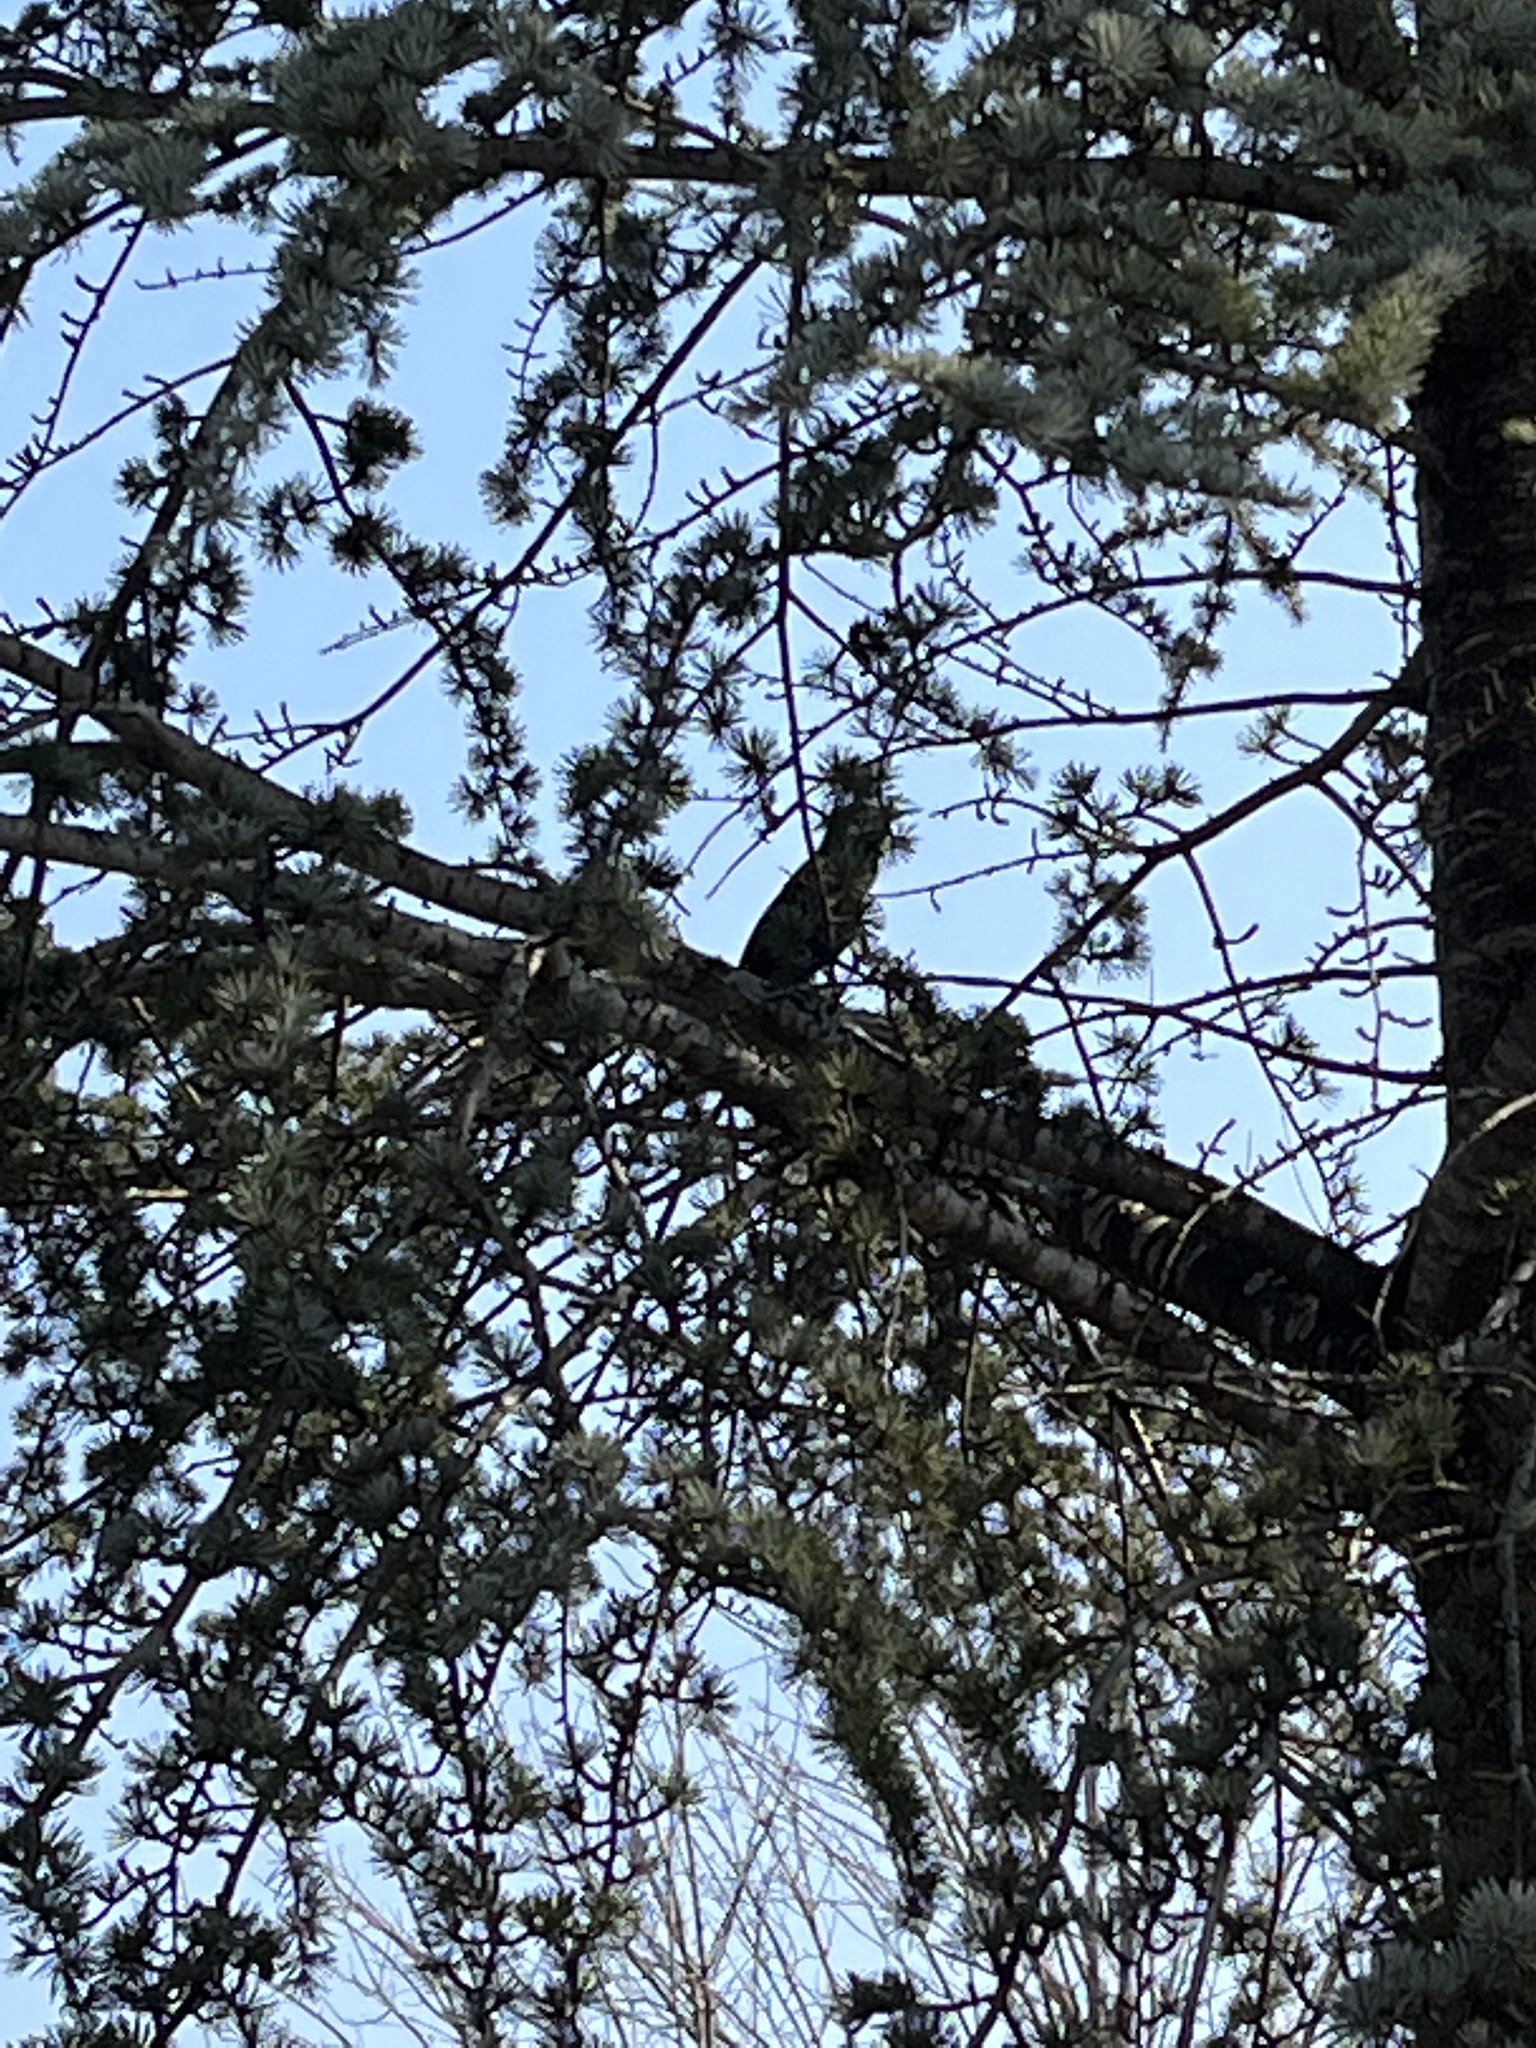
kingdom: Animalia
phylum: Chordata
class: Aves
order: Passeriformes
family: Sturnidae
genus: Sturnus
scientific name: Sturnus vulgaris
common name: Common starling
